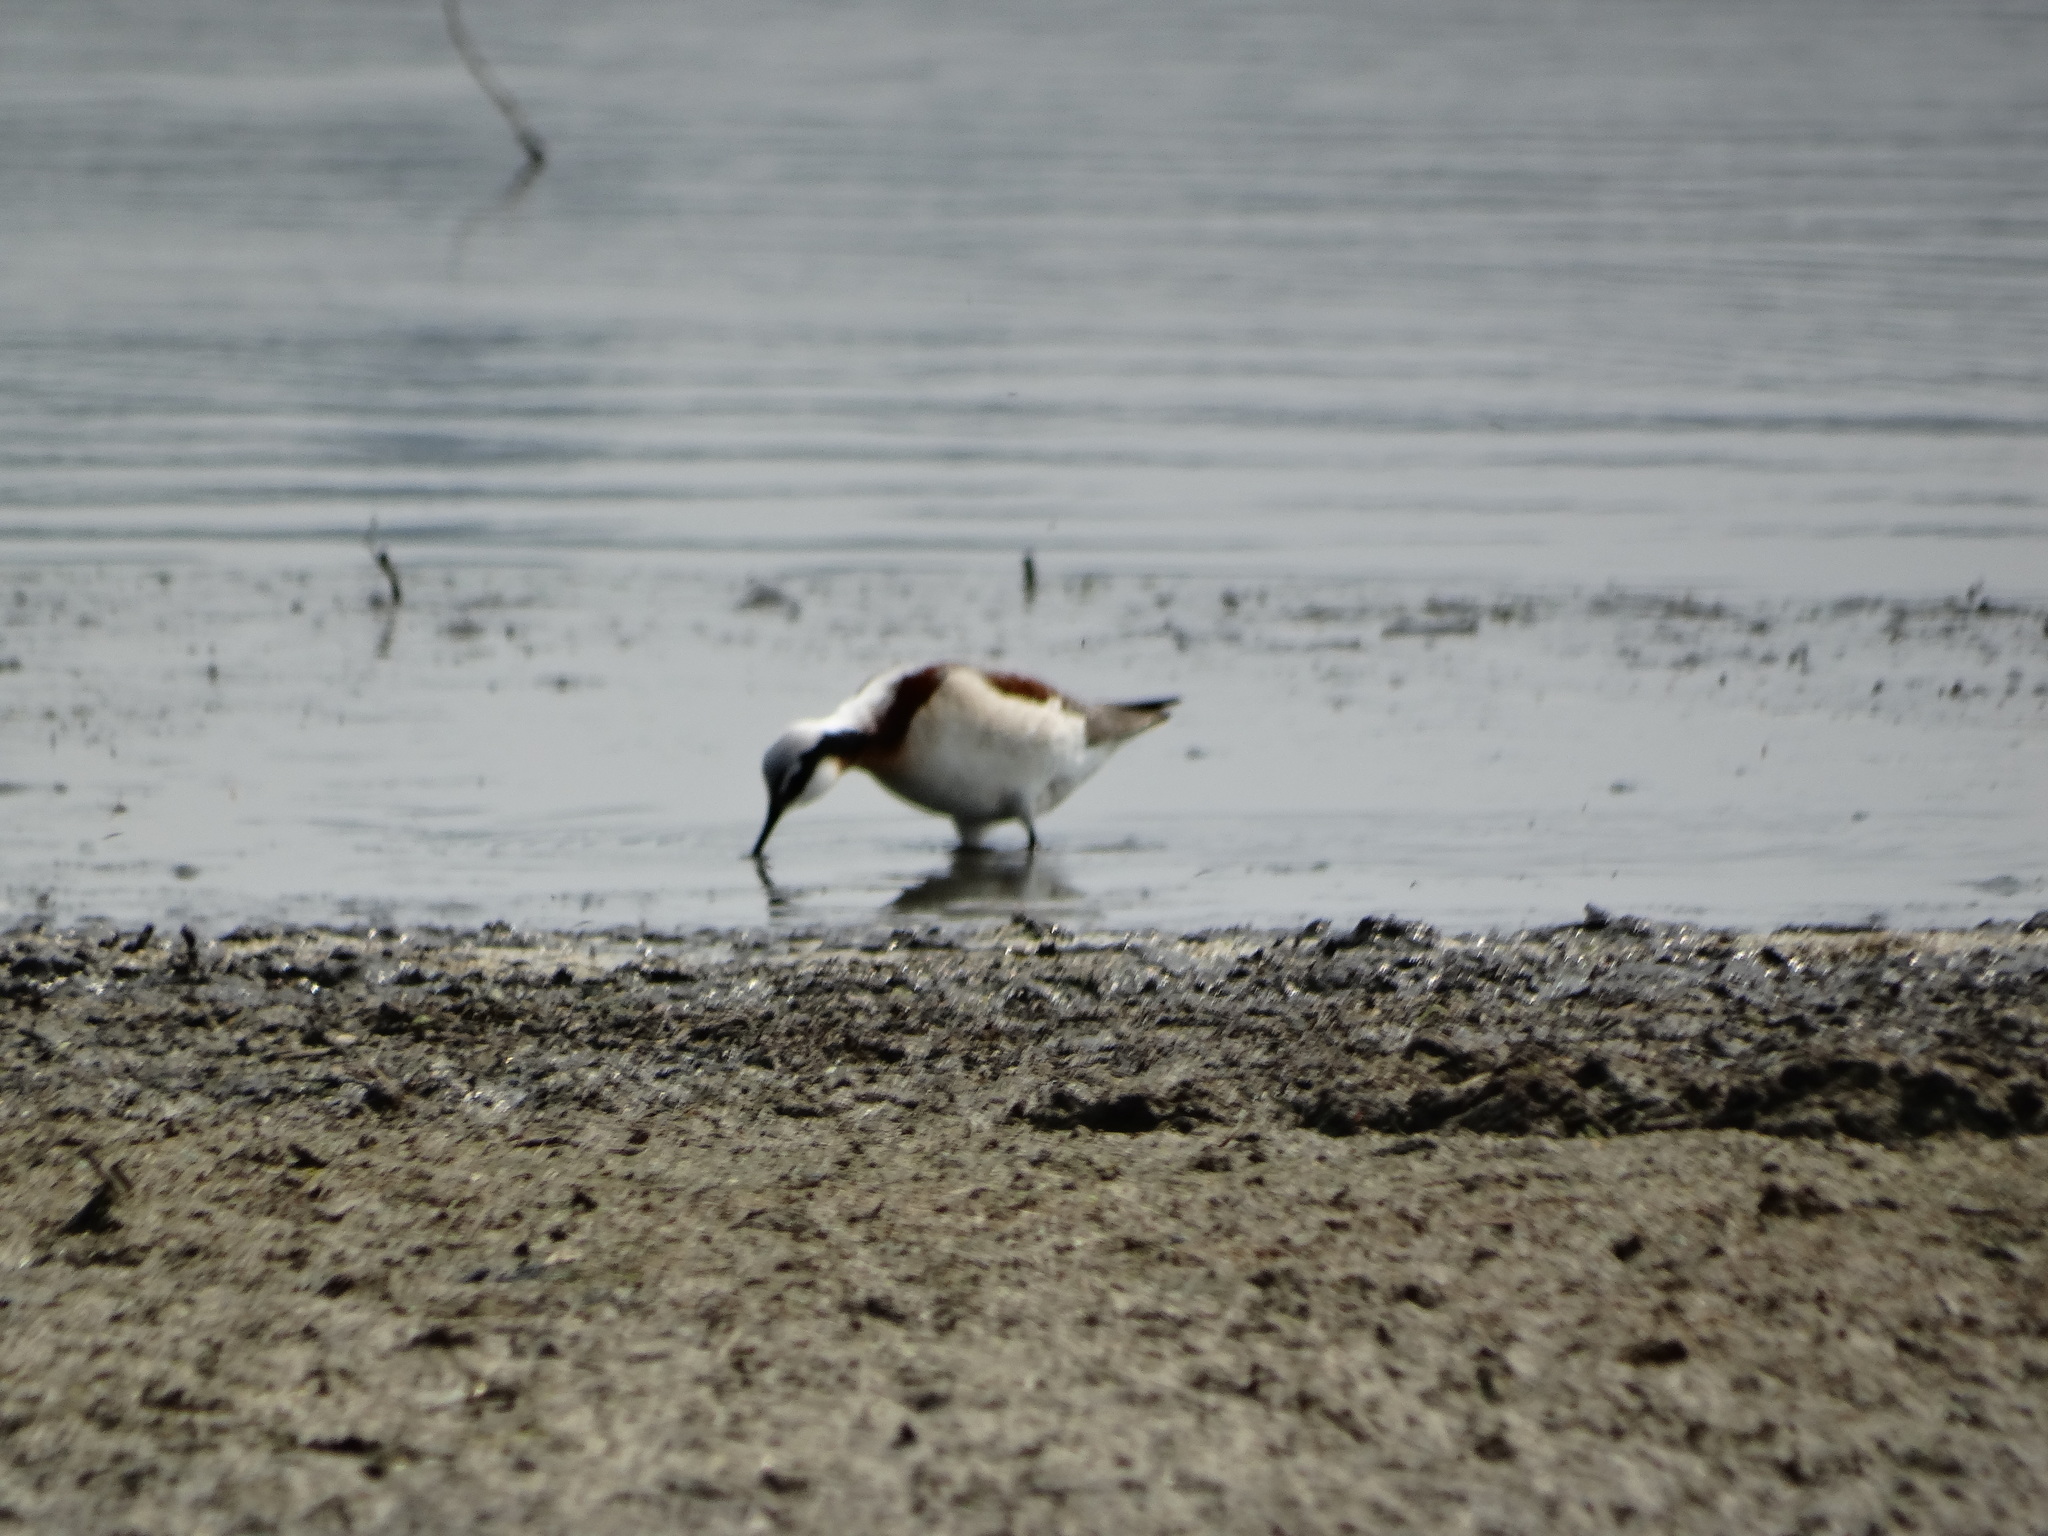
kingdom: Animalia
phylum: Chordata
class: Aves
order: Charadriiformes
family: Scolopacidae
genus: Phalaropus
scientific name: Phalaropus tricolor
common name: Wilson's phalarope
